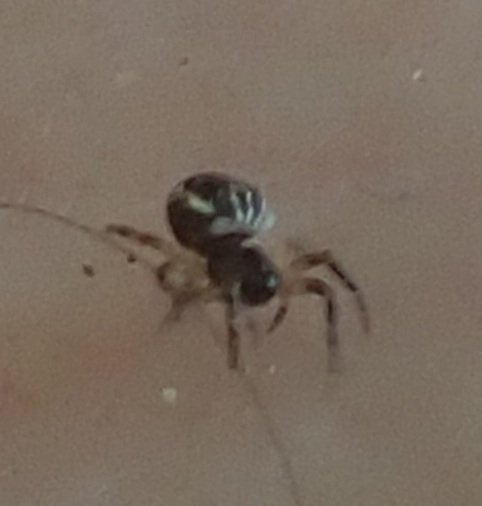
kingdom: Animalia
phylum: Arthropoda
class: Arachnida
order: Araneae
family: Araneidae
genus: Cyclosa
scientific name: Cyclosa conica
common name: Conical trashline orbweaver
